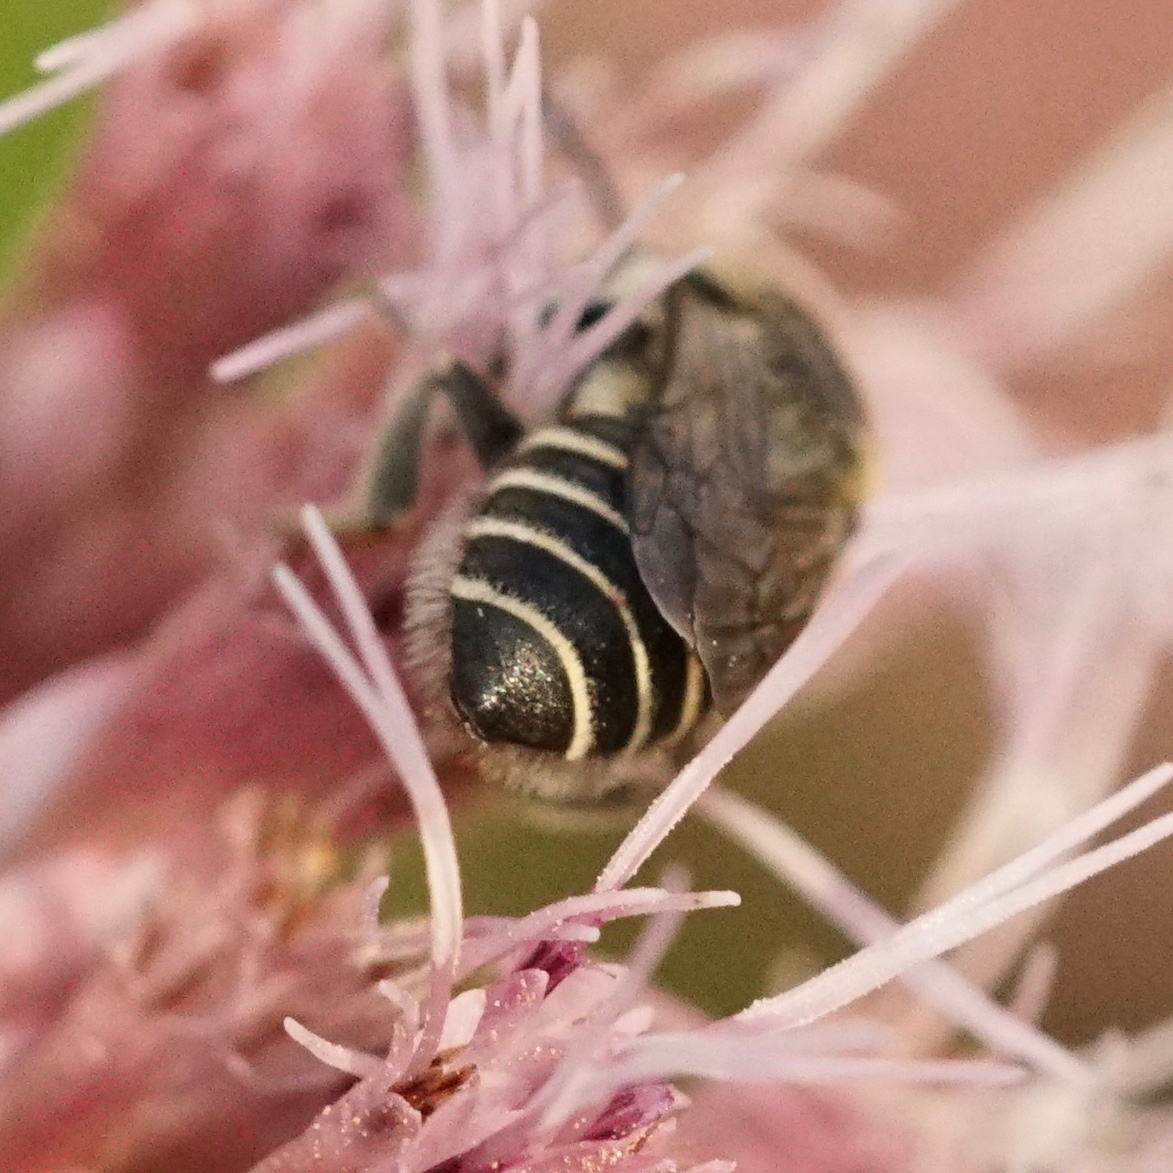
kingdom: Animalia
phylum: Arthropoda
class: Insecta
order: Hymenoptera
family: Megachilidae
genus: Megachile
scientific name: Megachile rotundata
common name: Alfalfa leafcutting bee
